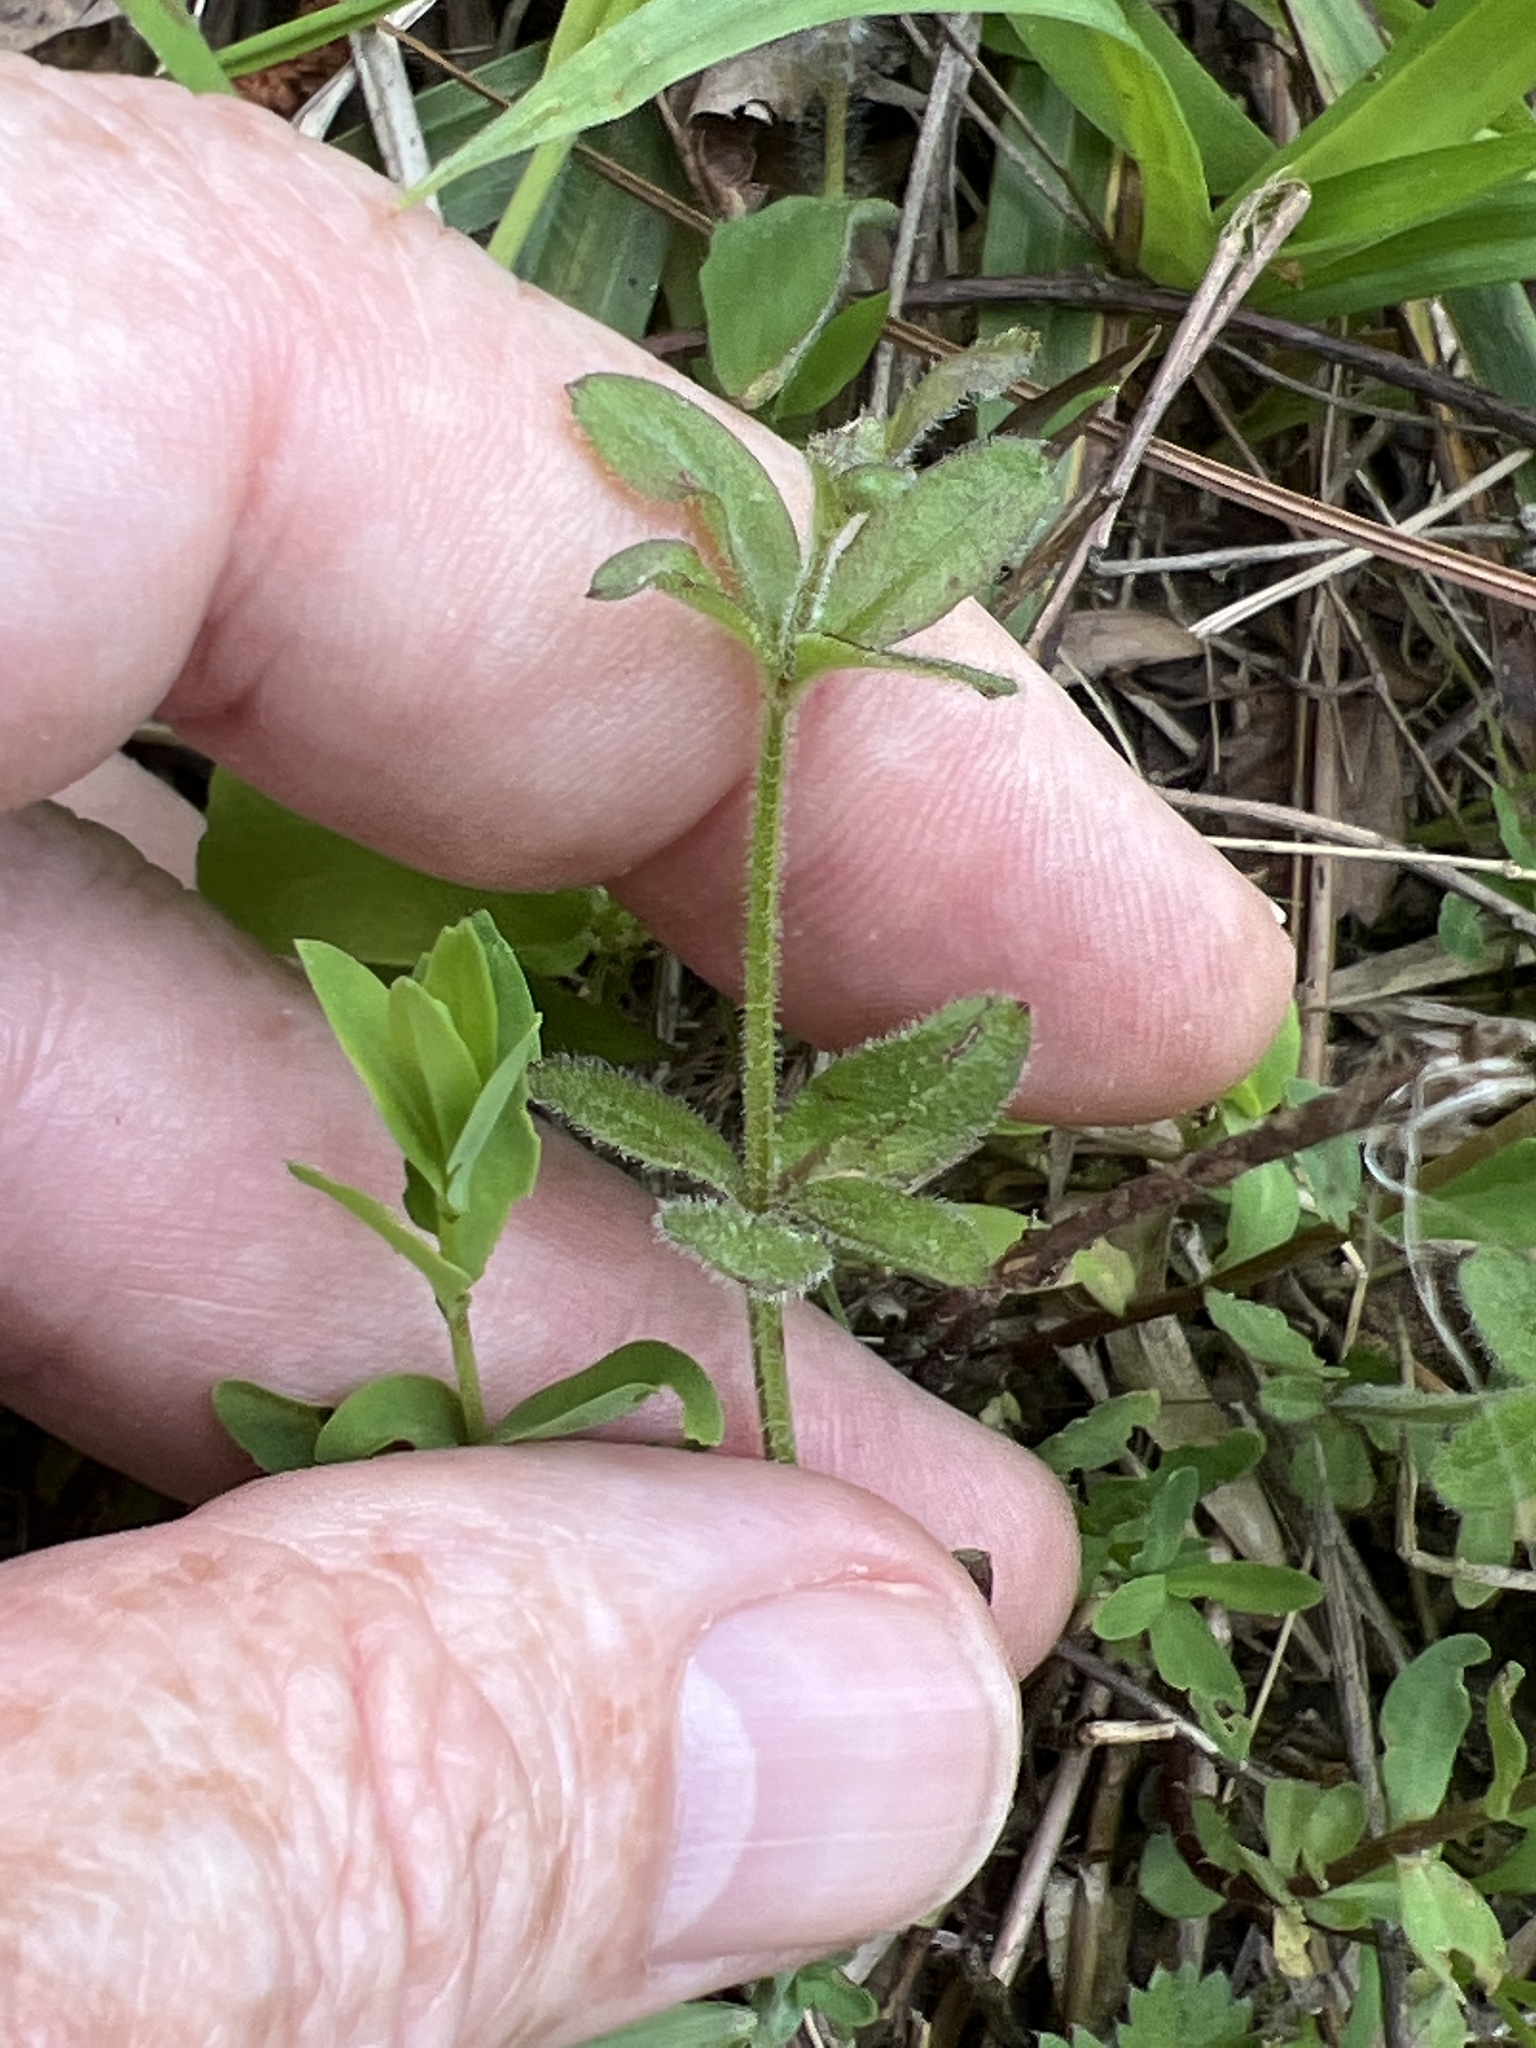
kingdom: Plantae
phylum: Tracheophyta
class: Magnoliopsida
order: Gentianales
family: Rubiaceae
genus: Galium
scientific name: Galium pilosum
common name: Hairy bedstraw
